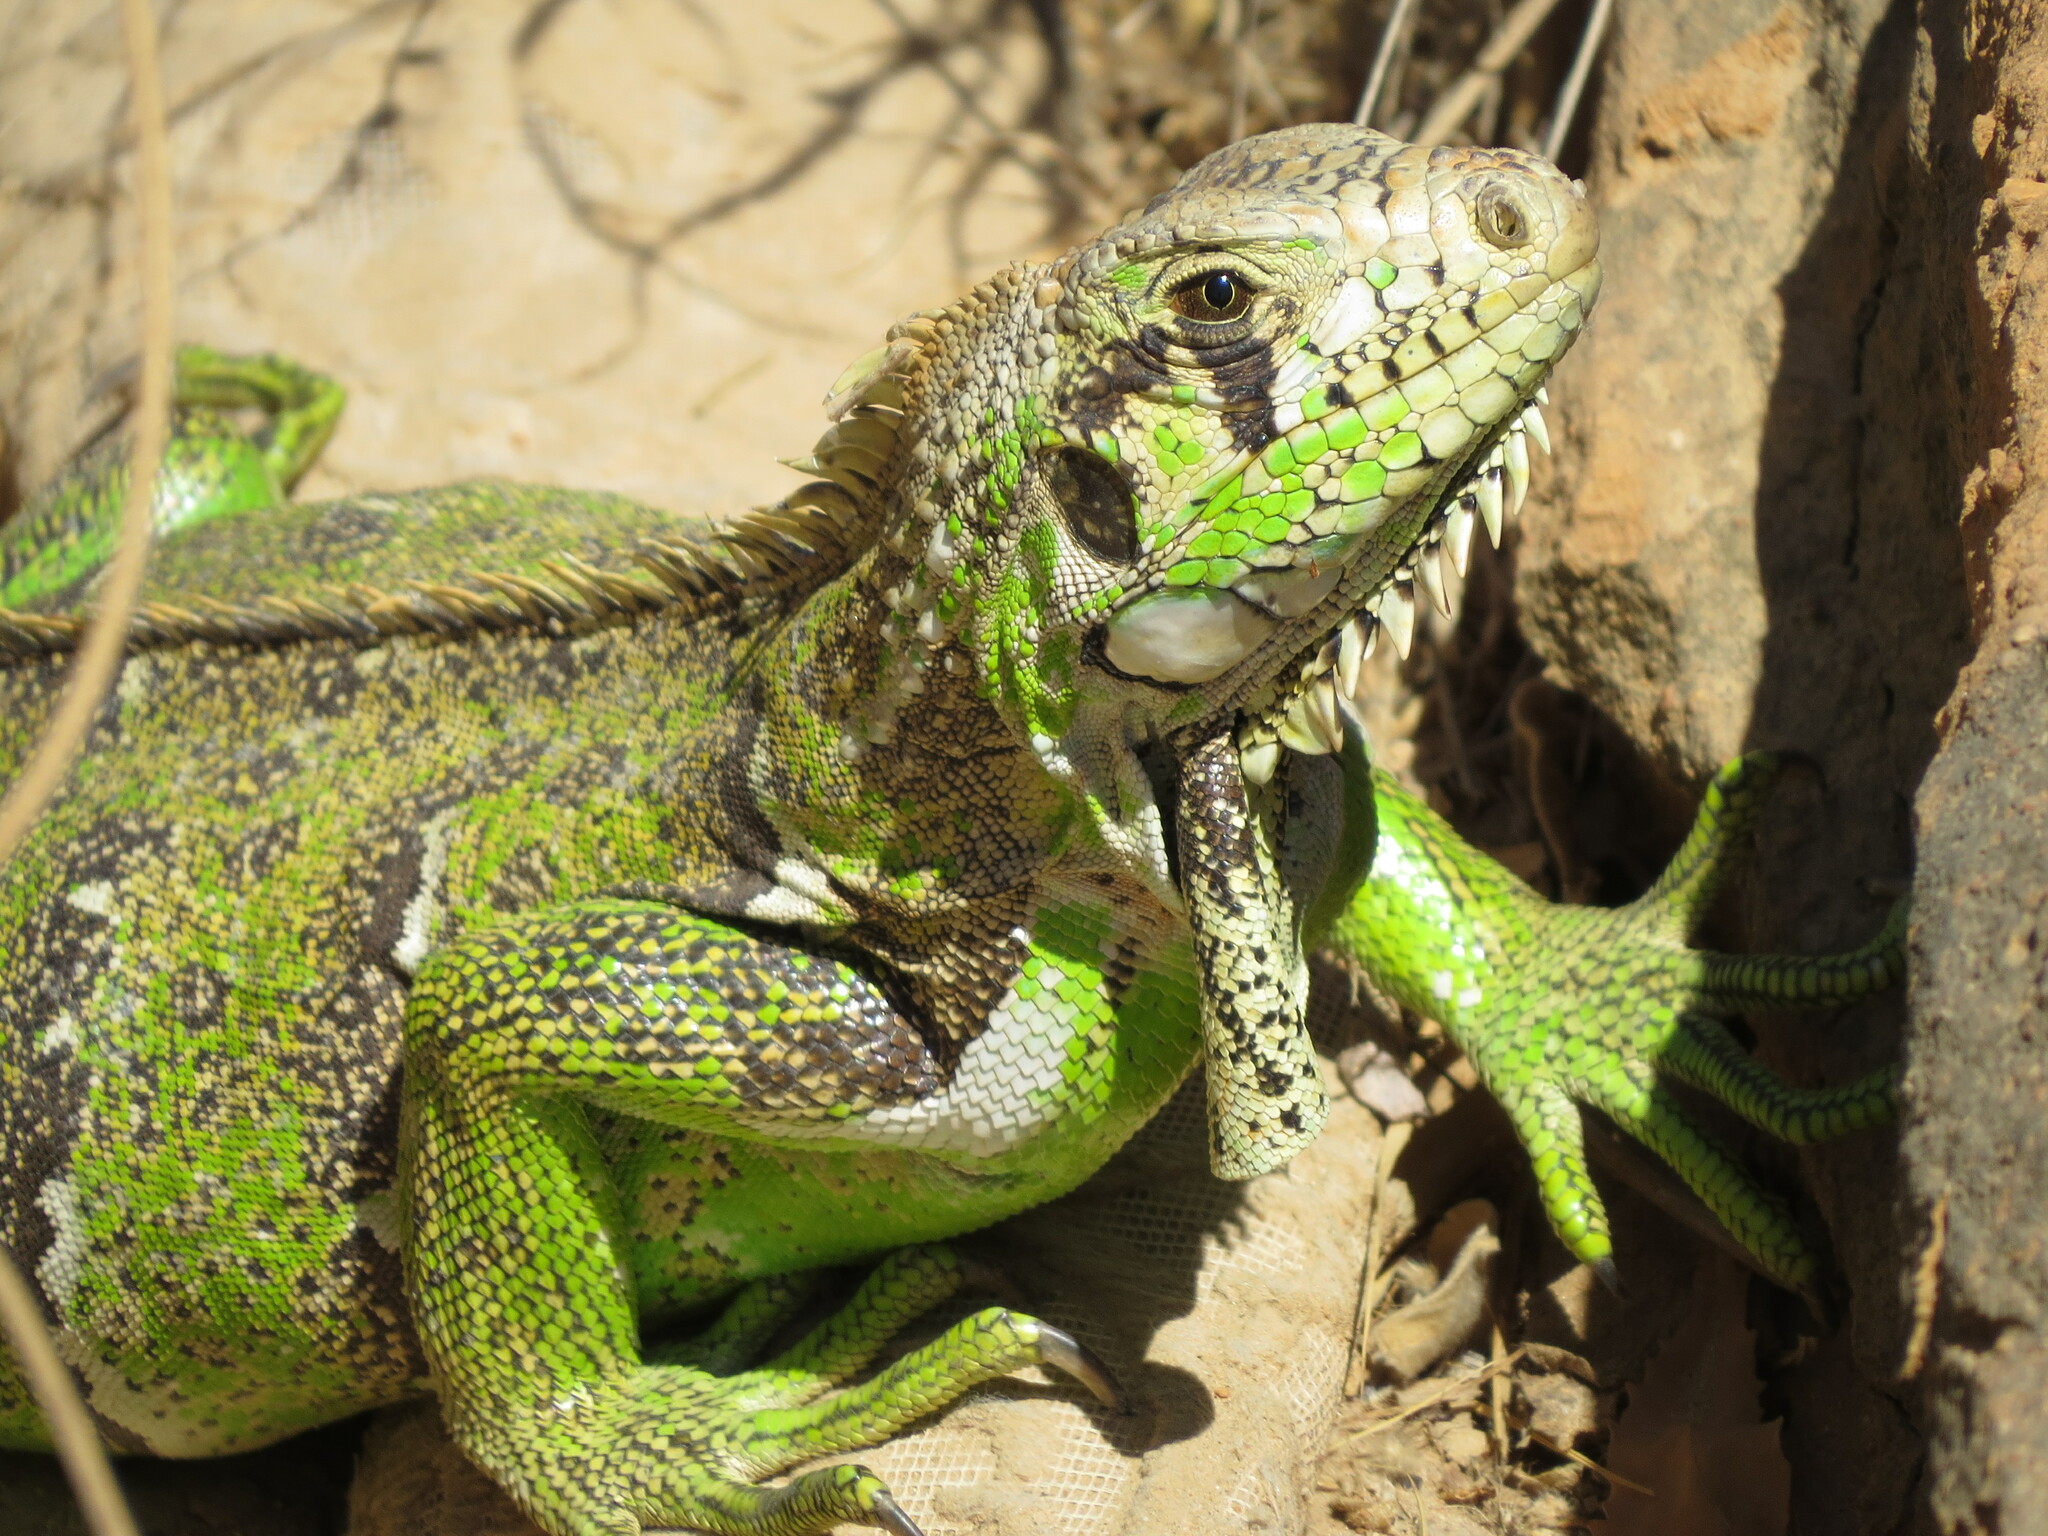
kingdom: Animalia
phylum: Chordata
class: Squamata
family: Iguanidae
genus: Iguana
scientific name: Iguana iguana
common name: Green iguana
